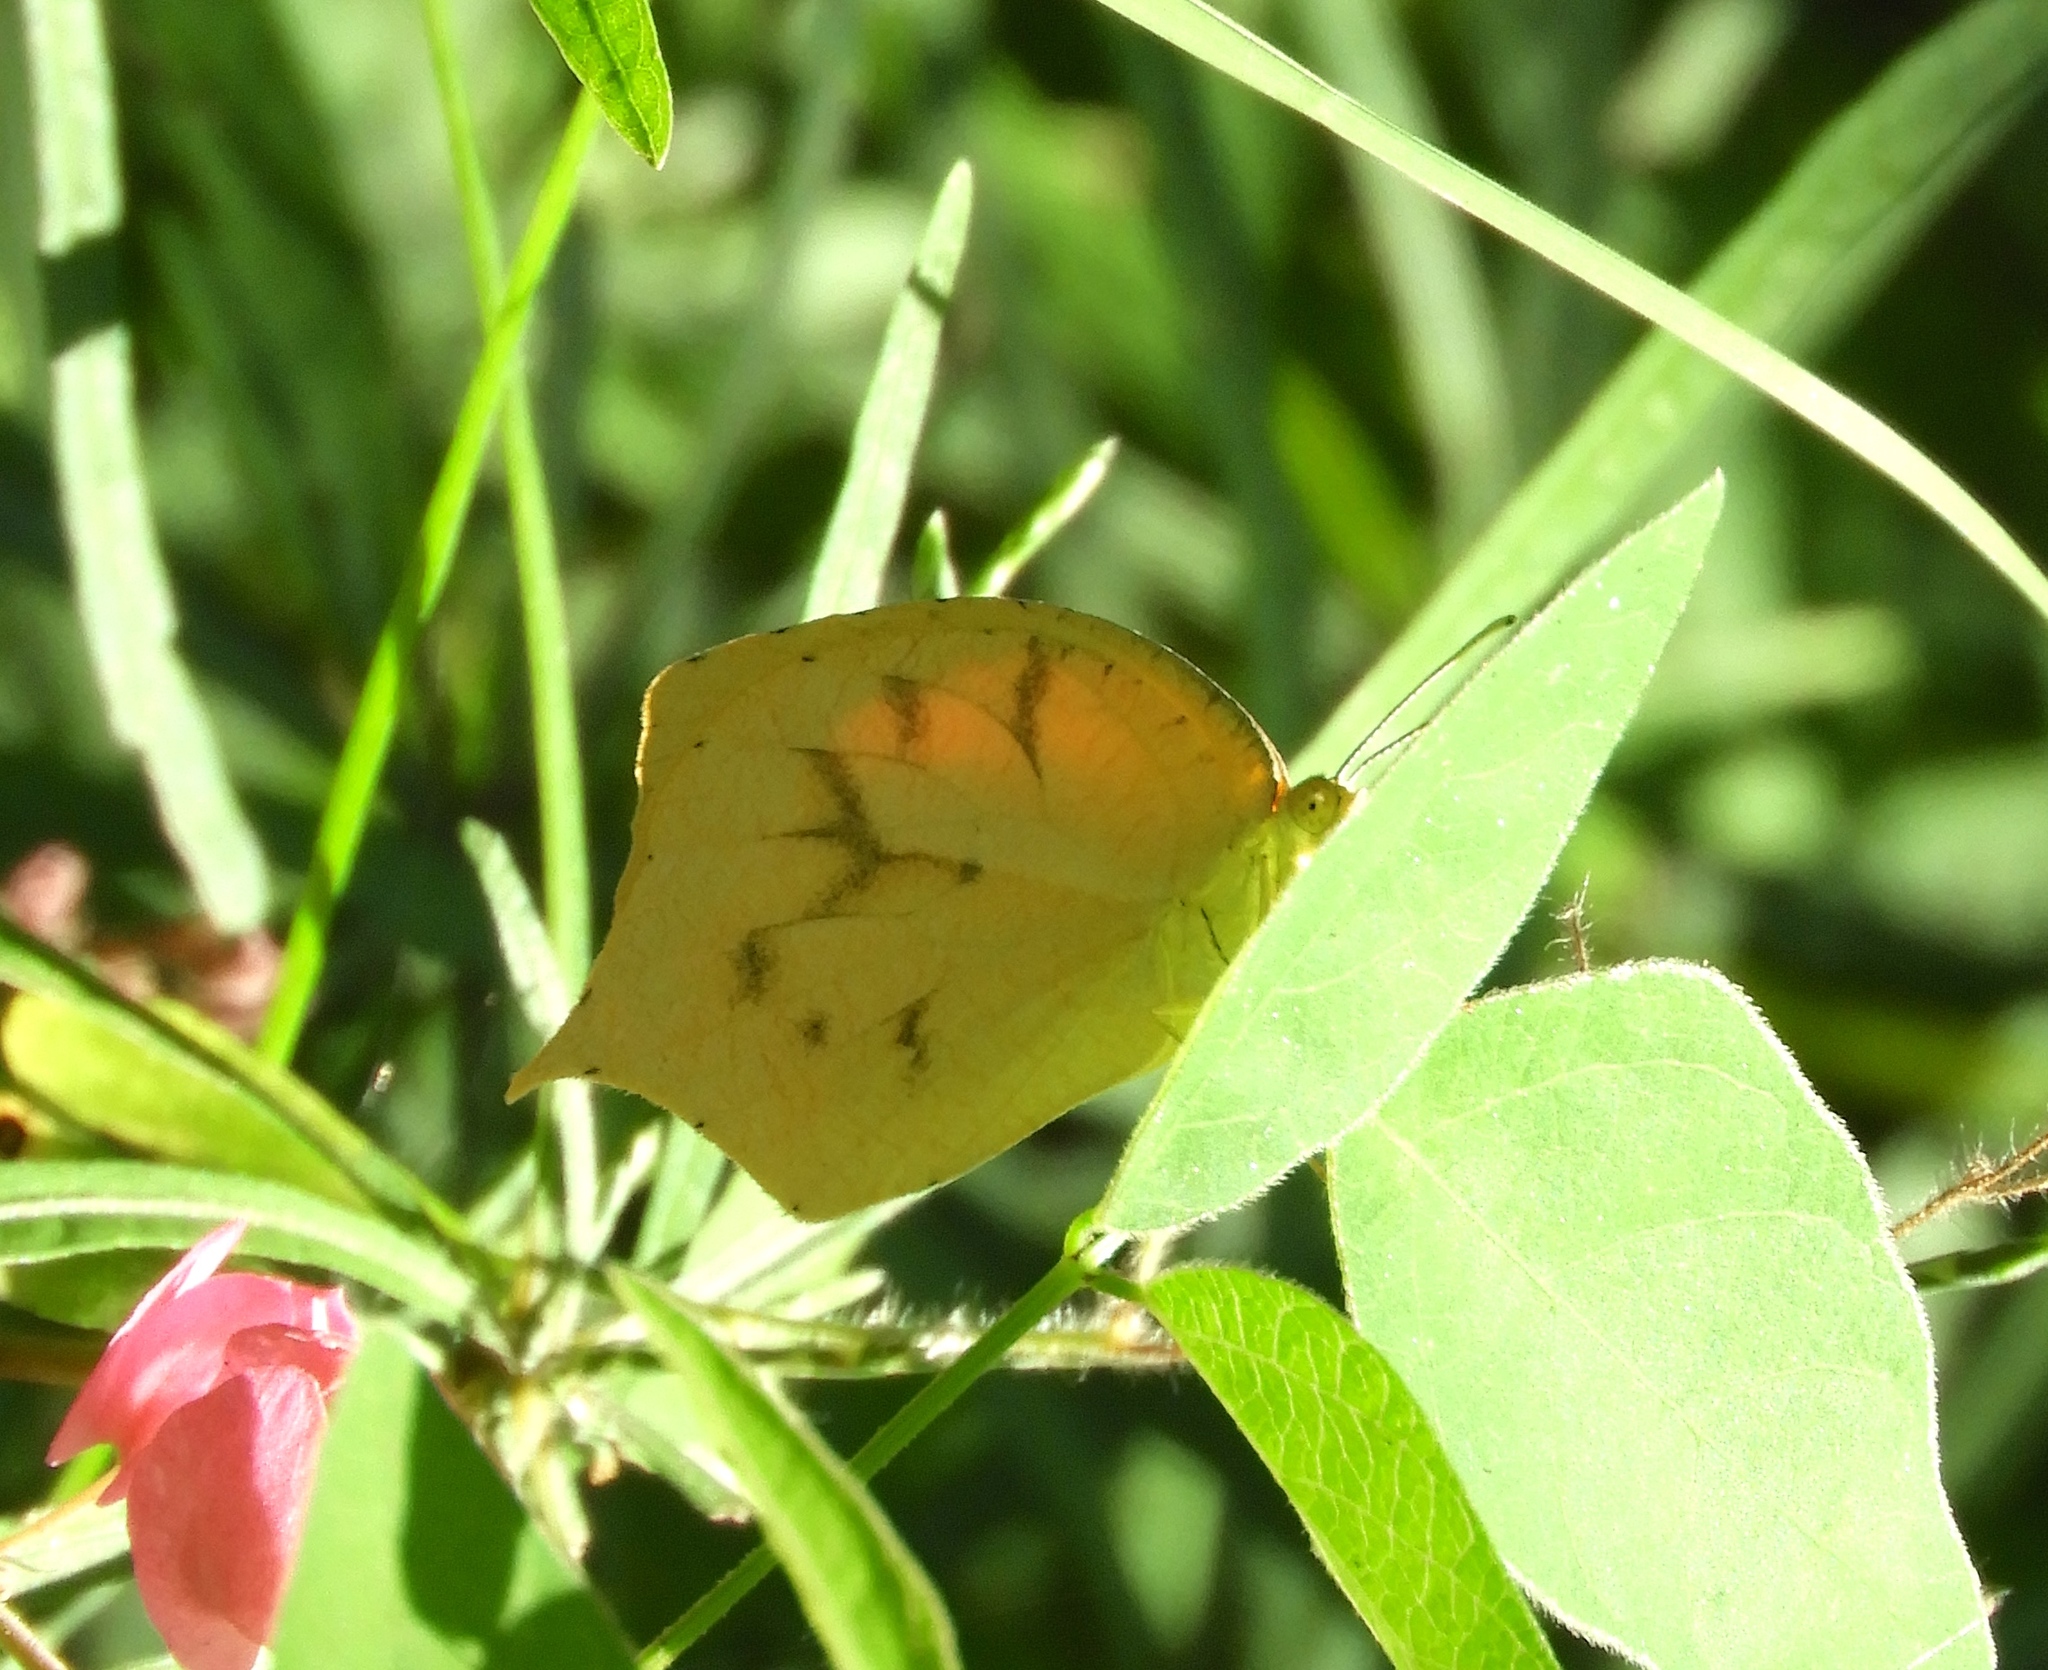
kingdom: Animalia
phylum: Arthropoda
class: Insecta
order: Lepidoptera
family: Pieridae
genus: Pyrisitia
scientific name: Pyrisitia proterpia
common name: Tailed orange
